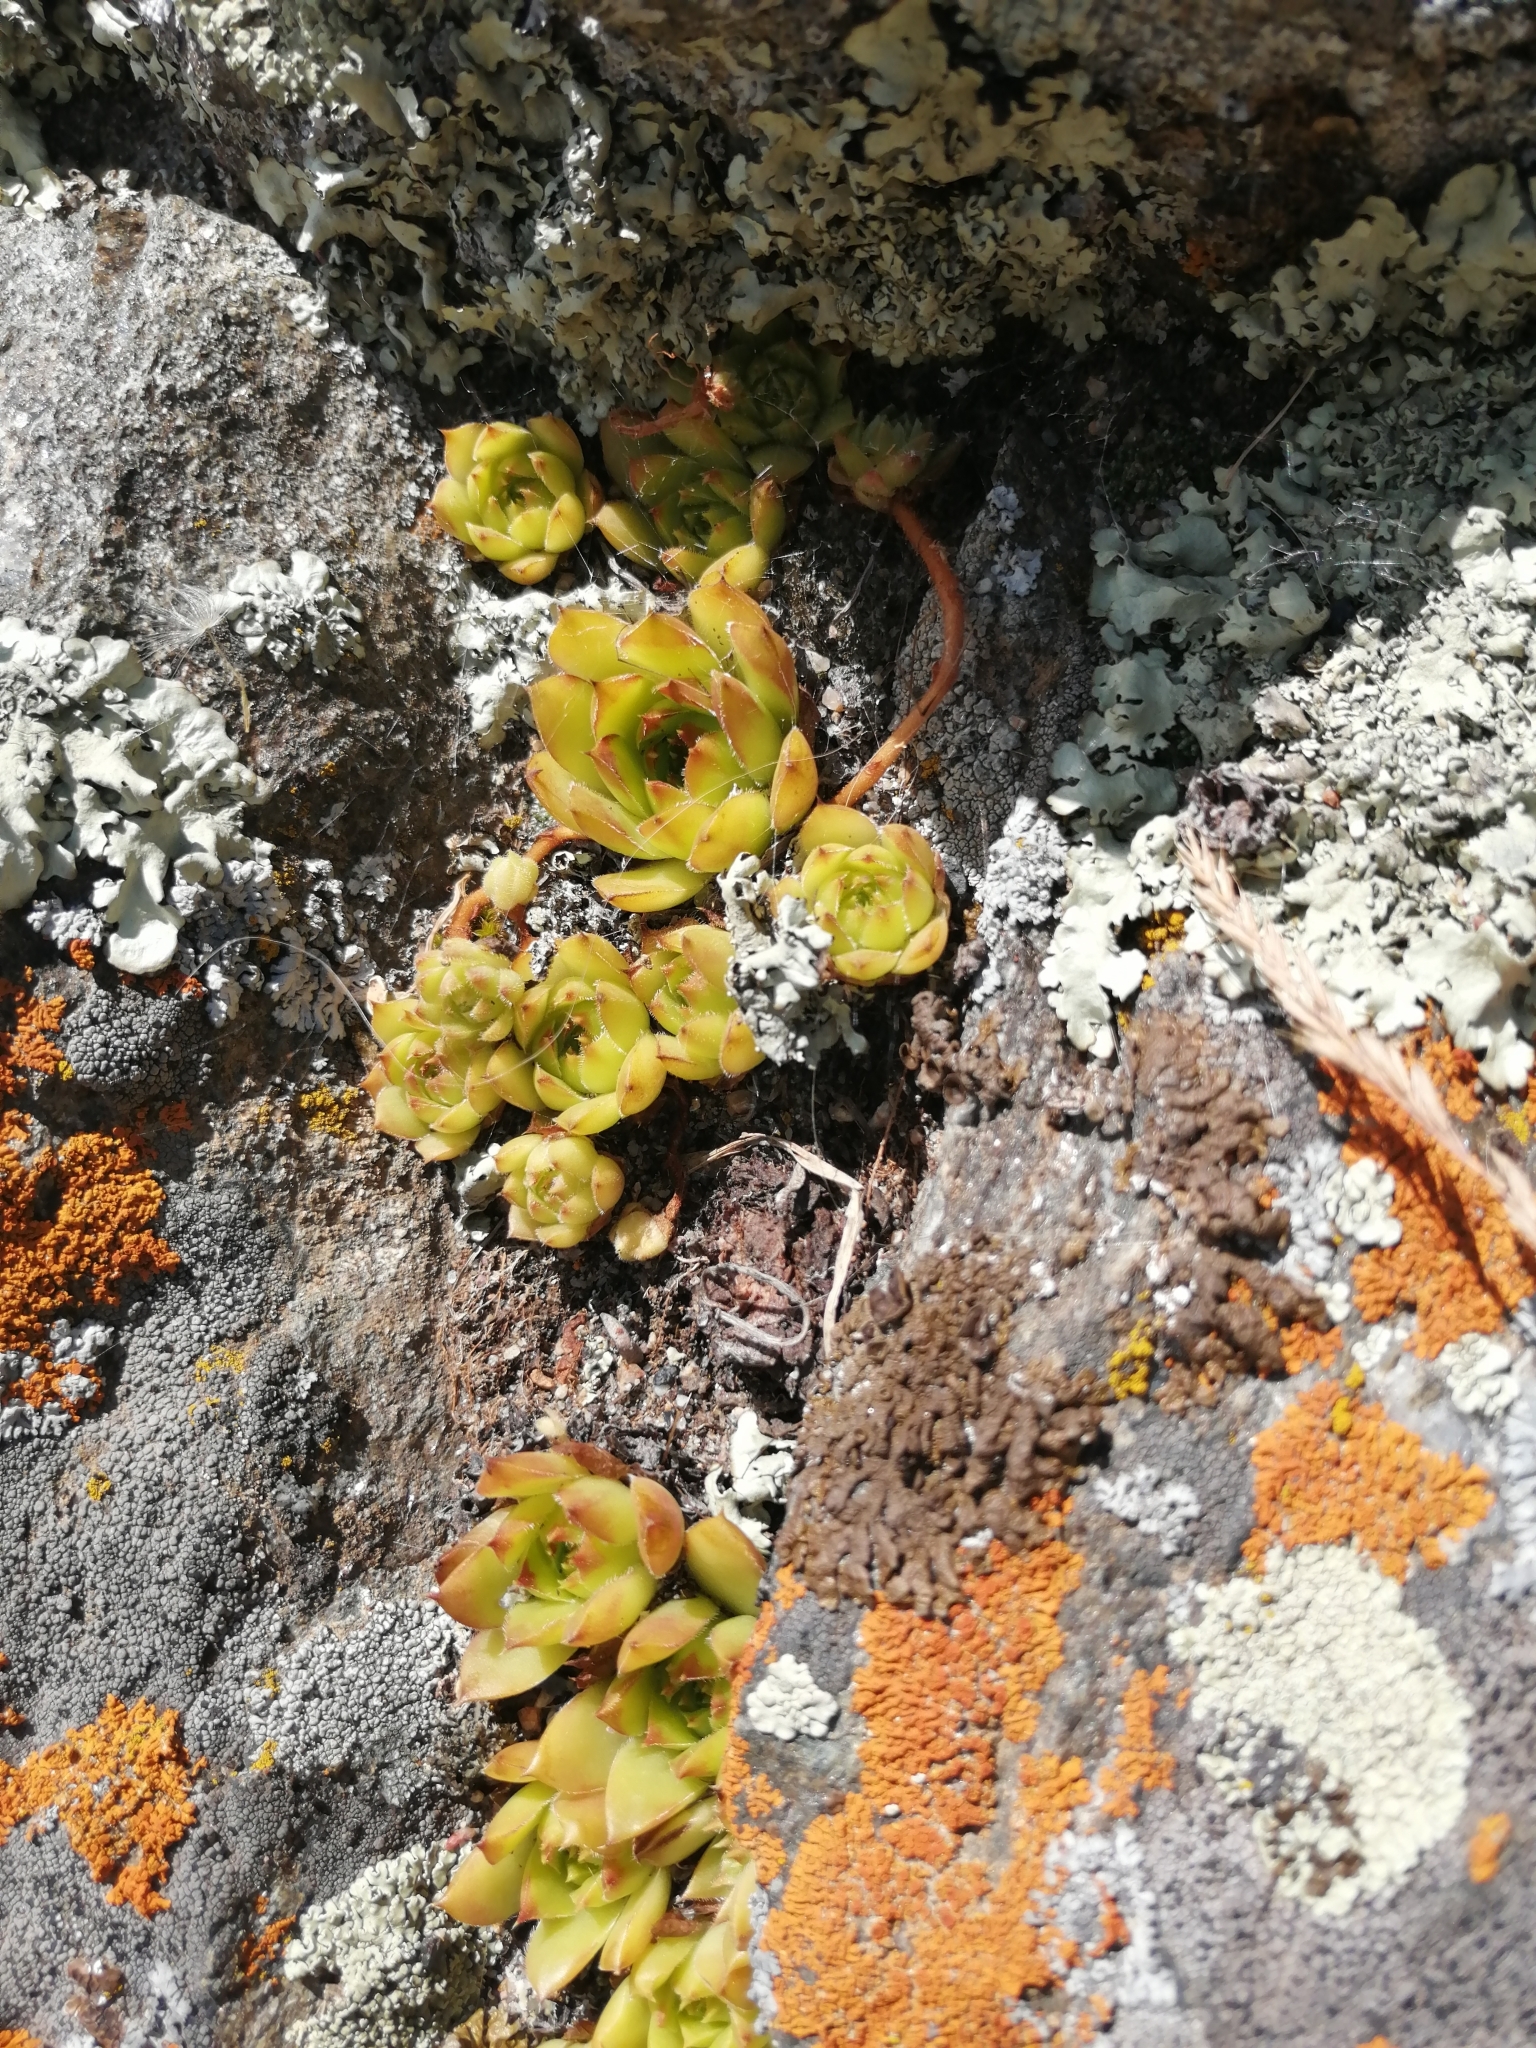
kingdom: Plantae
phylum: Tracheophyta
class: Magnoliopsida
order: Saxifragales
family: Crassulaceae
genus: Sempervivum
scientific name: Sempervivum caucasicum
